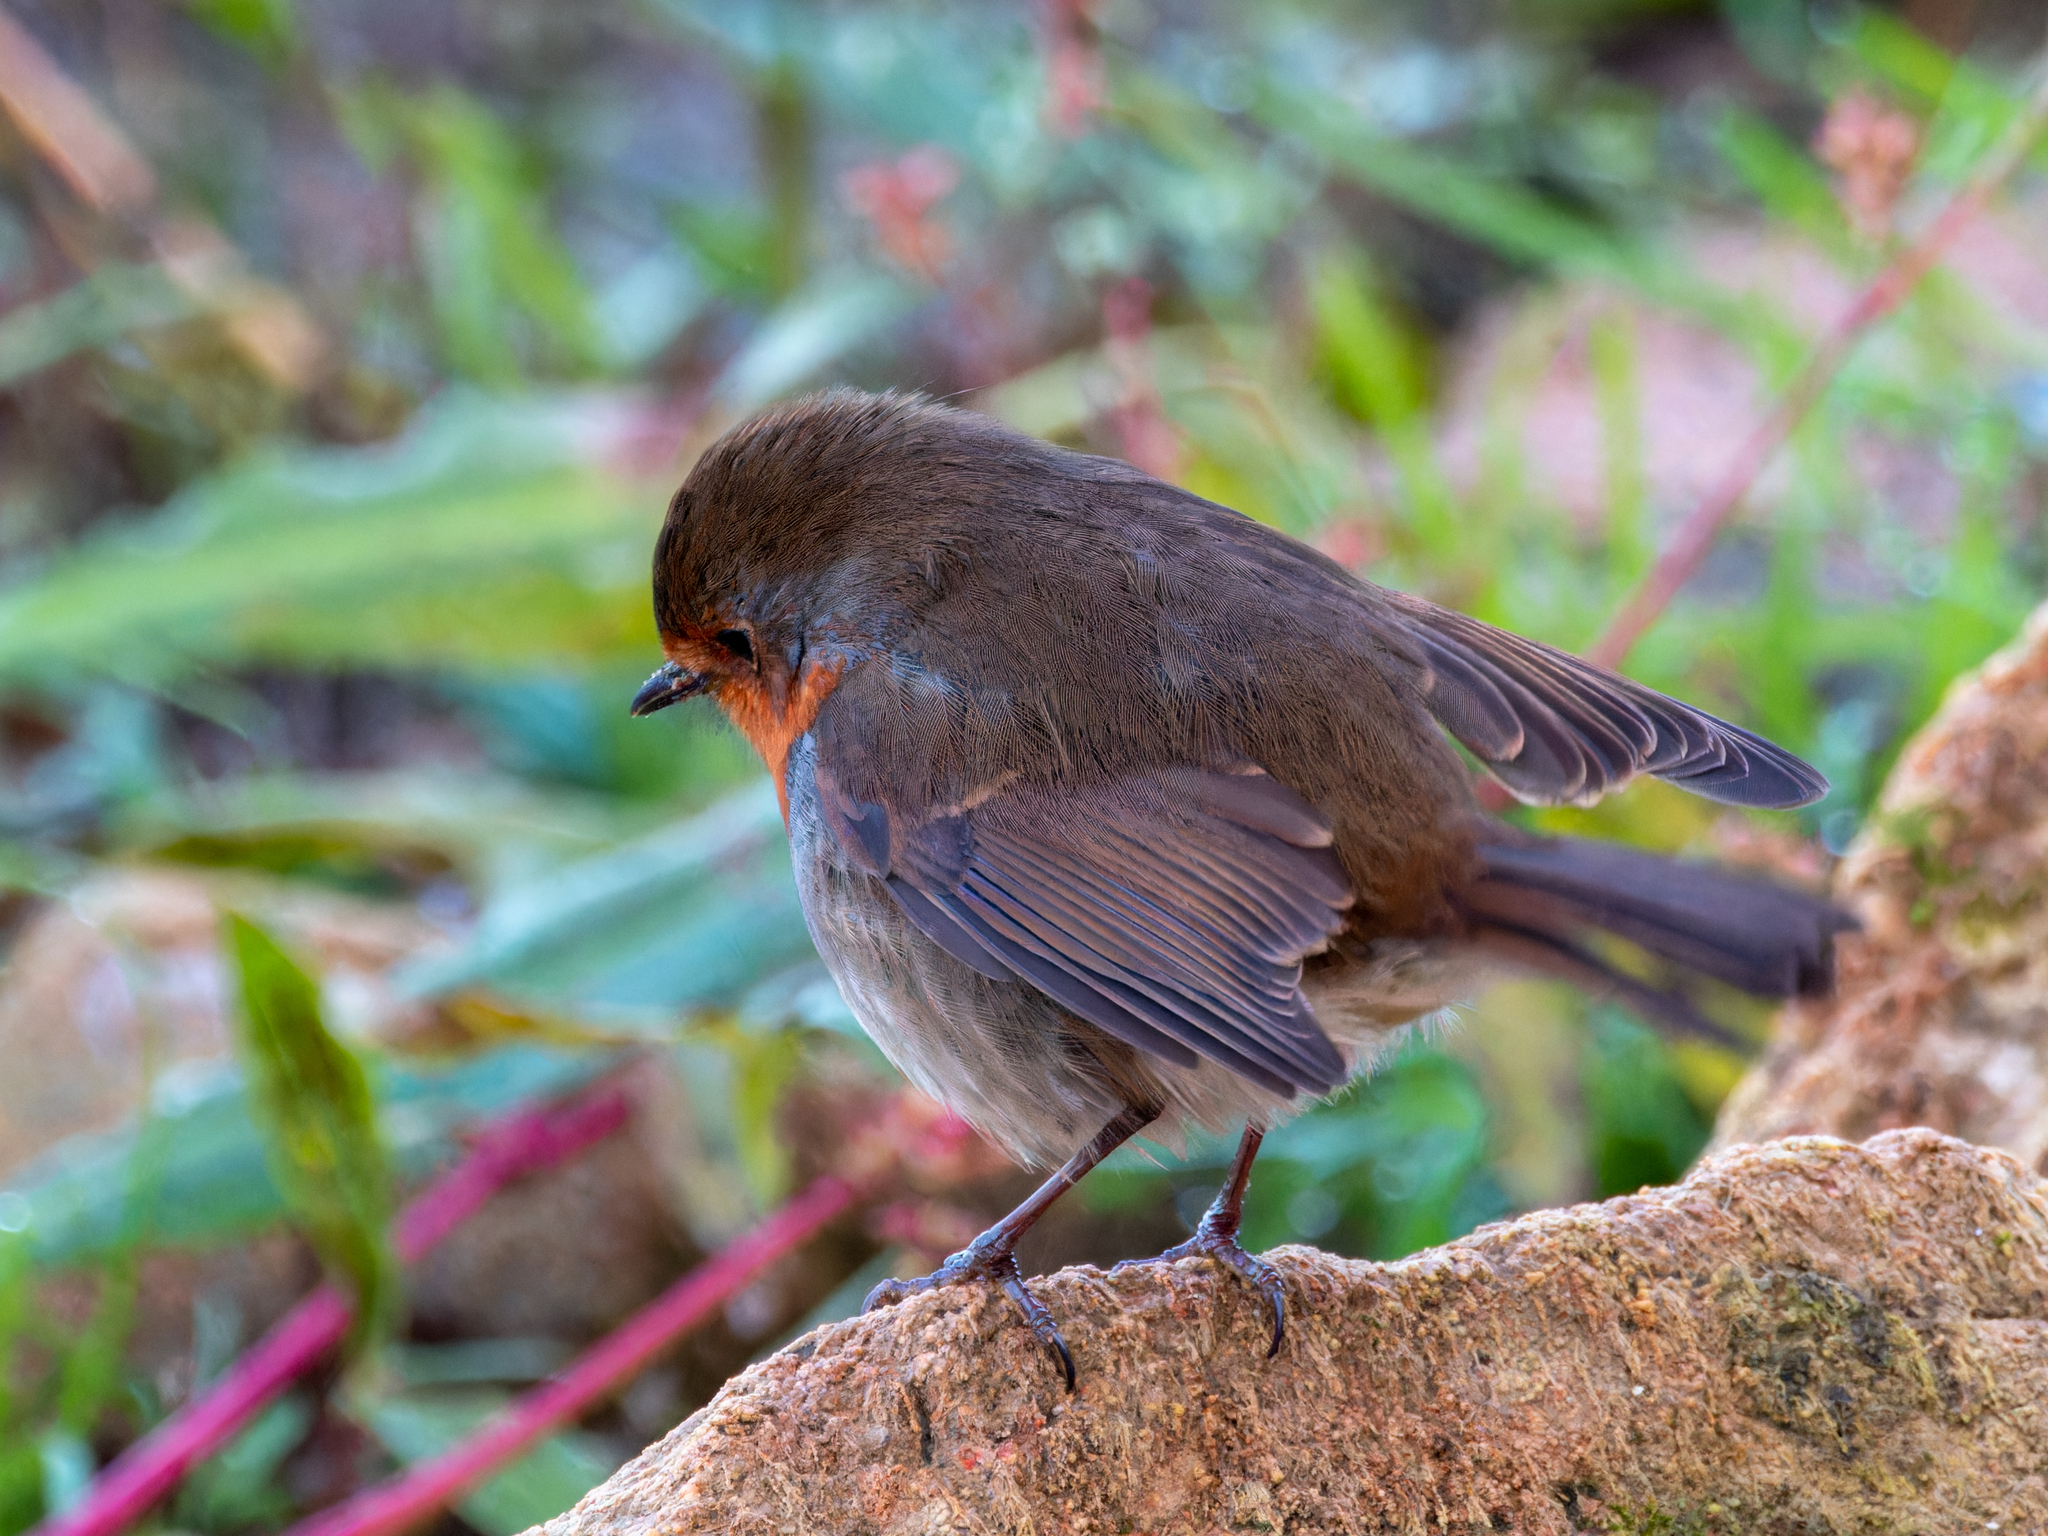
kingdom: Animalia
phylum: Chordata
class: Aves
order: Passeriformes
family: Muscicapidae
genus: Erithacus
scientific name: Erithacus rubecula
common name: European robin
